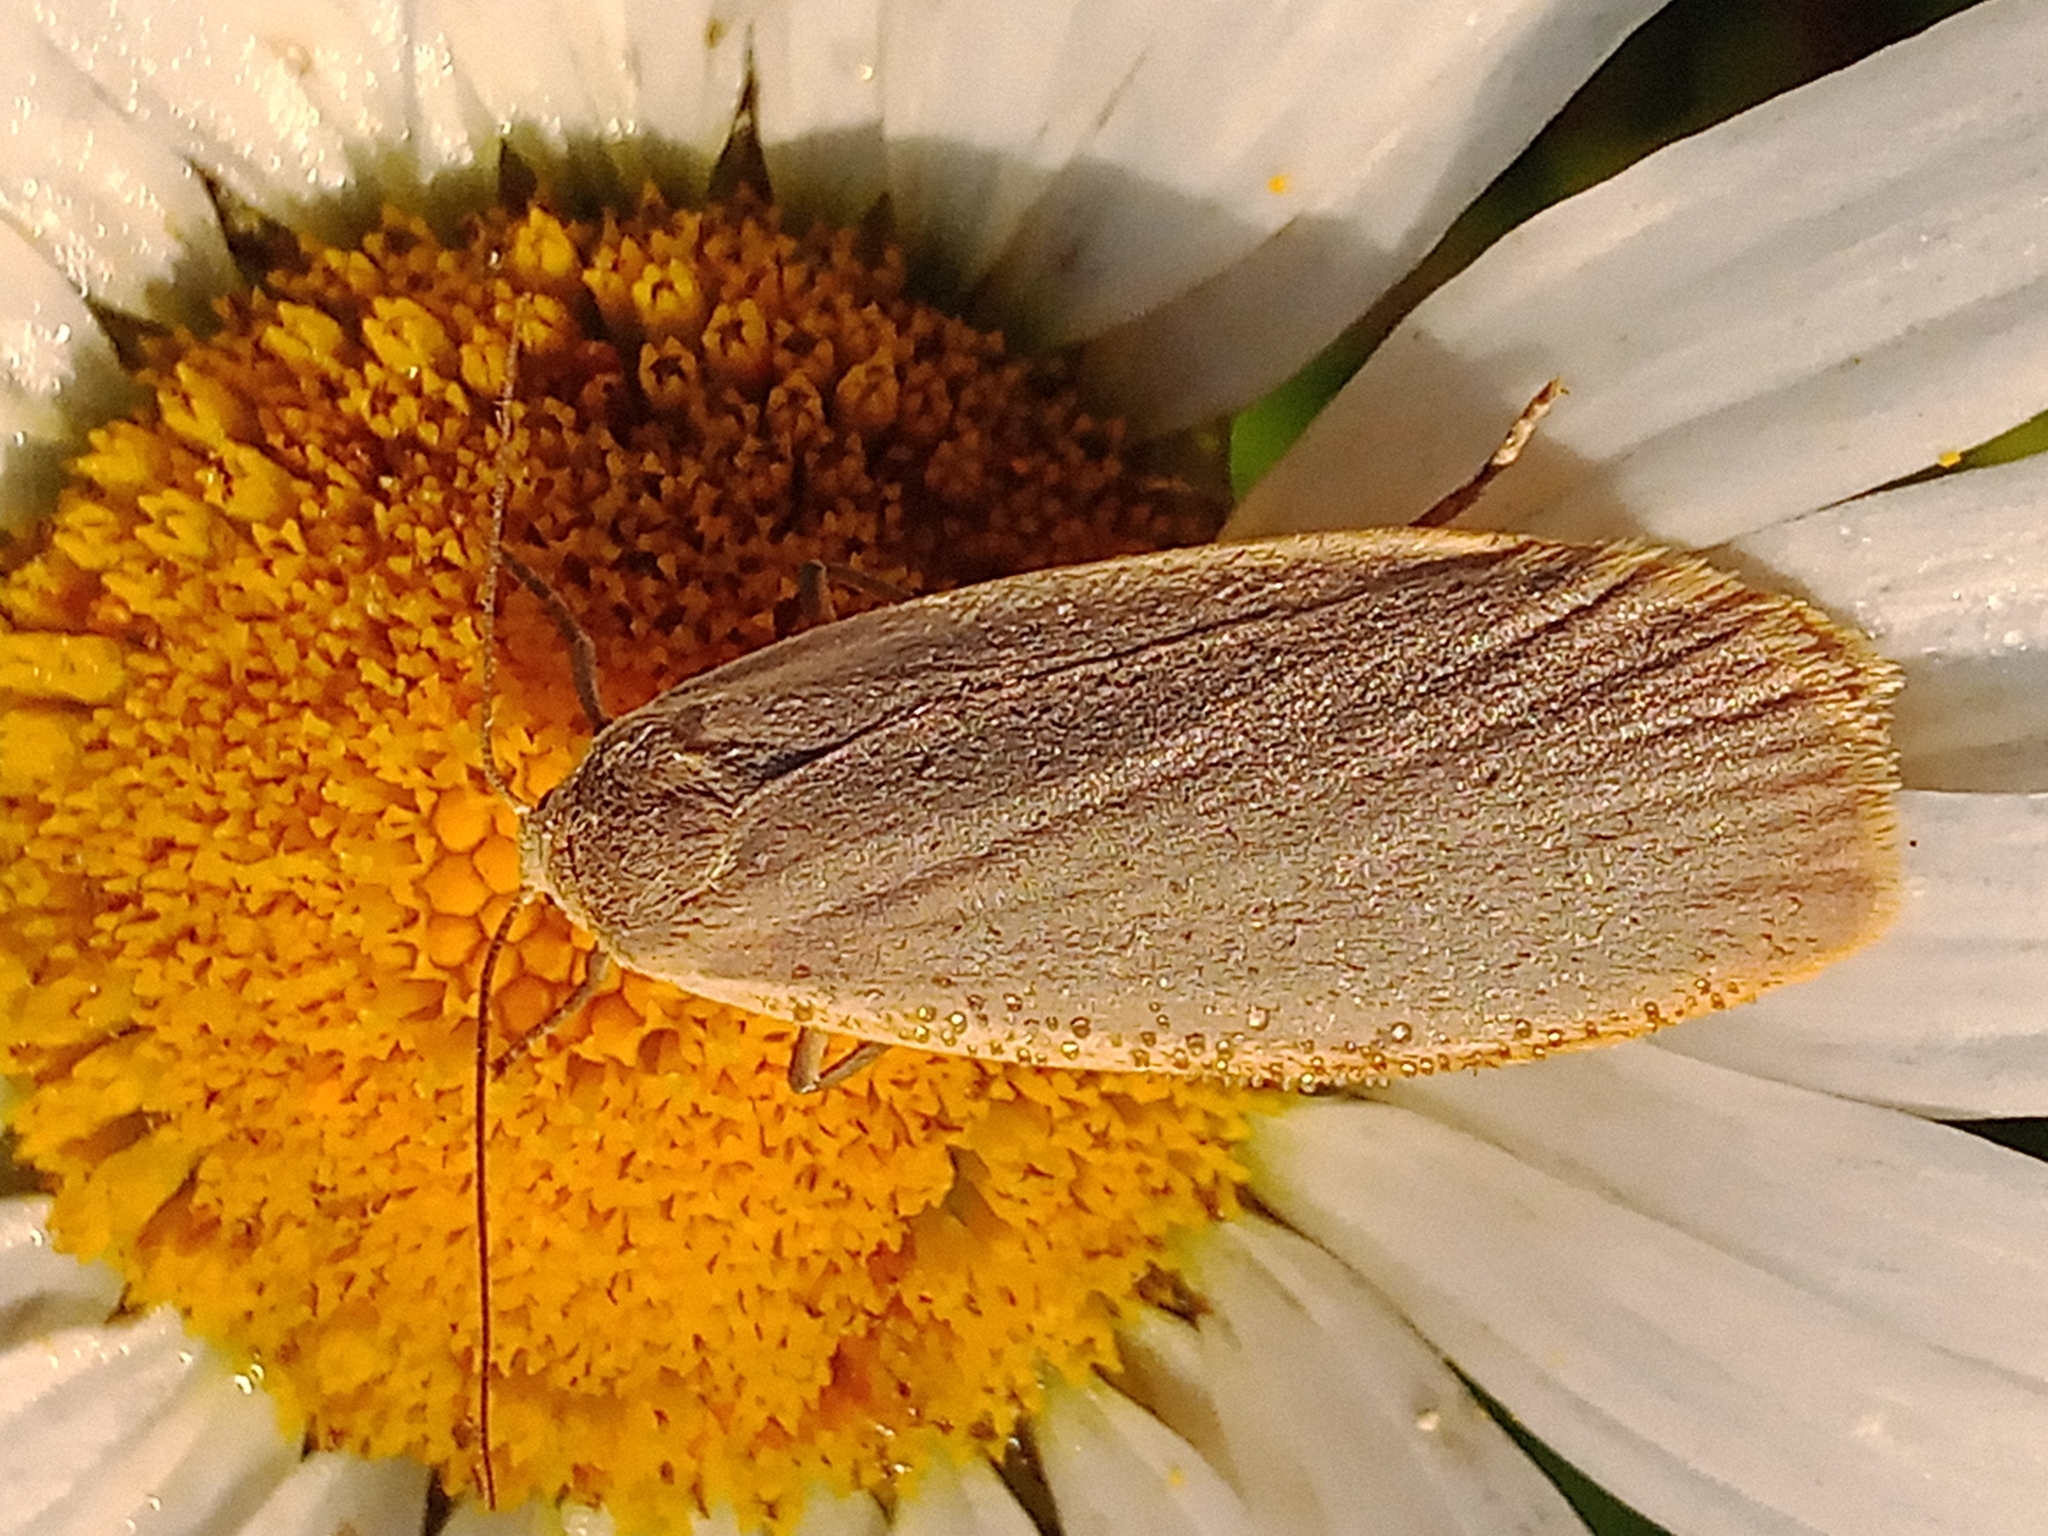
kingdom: Animalia
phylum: Arthropoda
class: Insecta
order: Lepidoptera
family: Erebidae
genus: Collita
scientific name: Collita griseola
